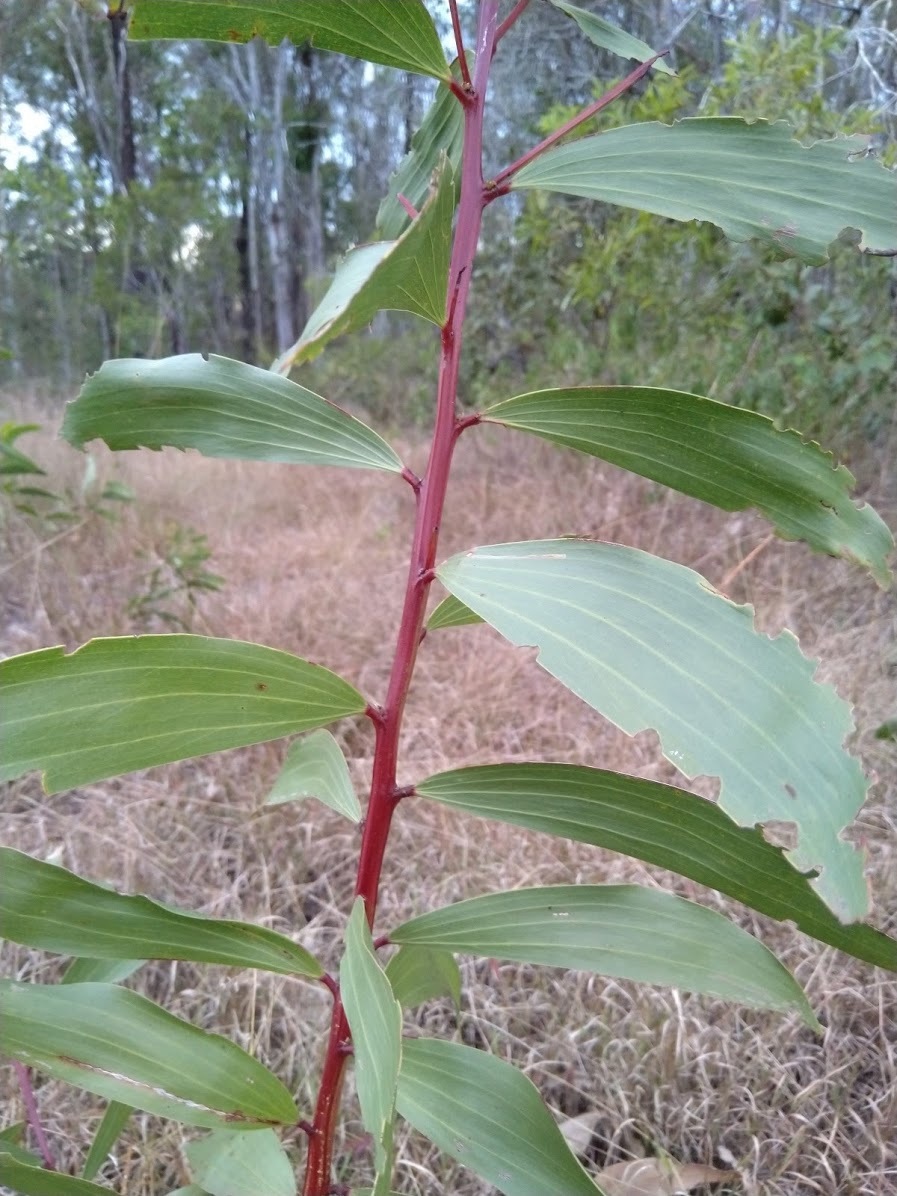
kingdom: Plantae
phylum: Tracheophyta
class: Magnoliopsida
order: Fabales
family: Fabaceae
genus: Acacia
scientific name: Acacia leiocalyx
